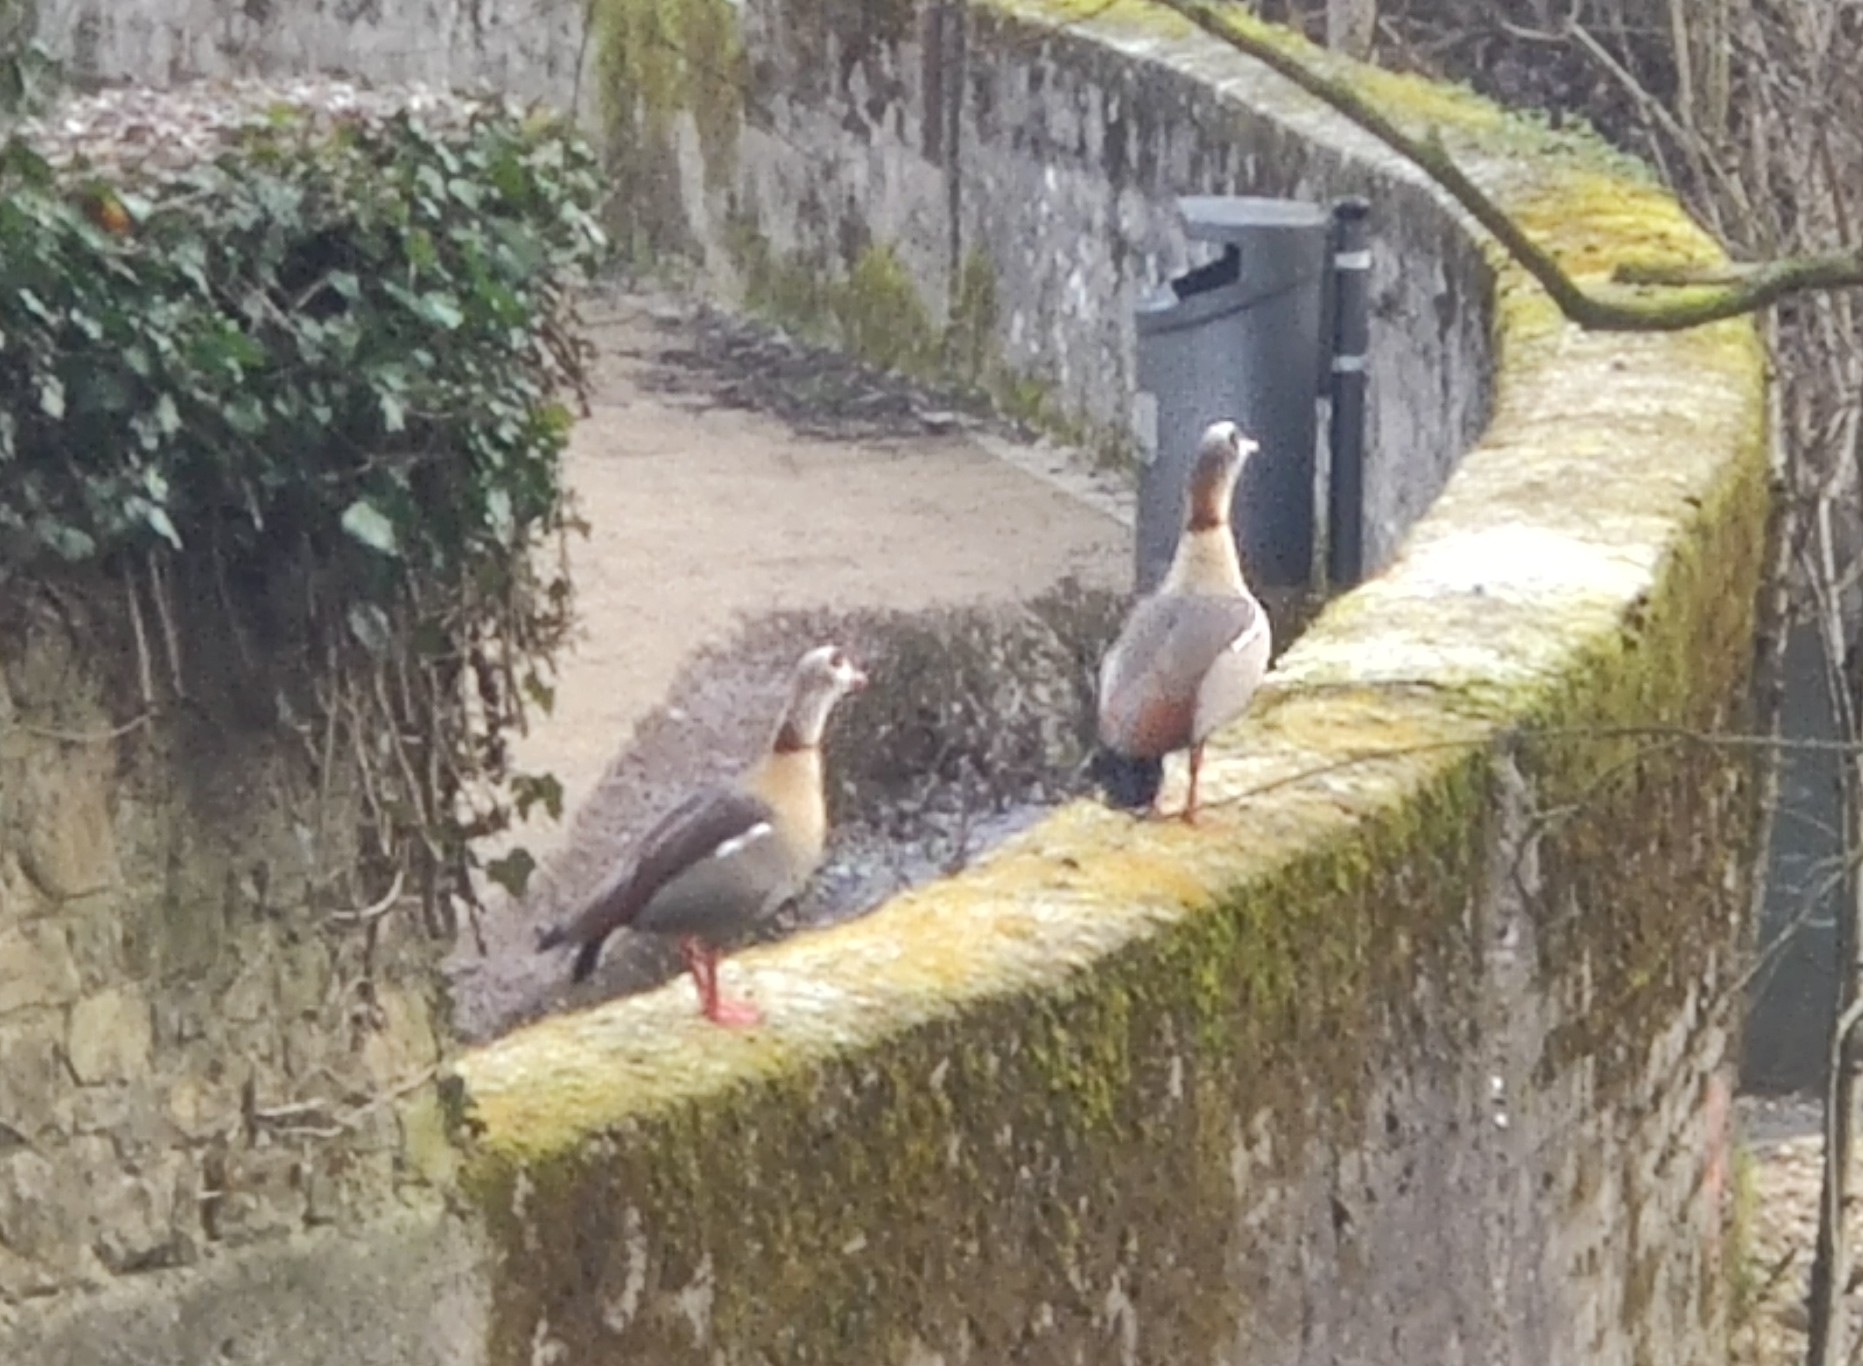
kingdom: Animalia
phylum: Chordata
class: Aves
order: Anseriformes
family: Anatidae
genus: Alopochen
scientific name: Alopochen aegyptiaca
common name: Egyptian goose
